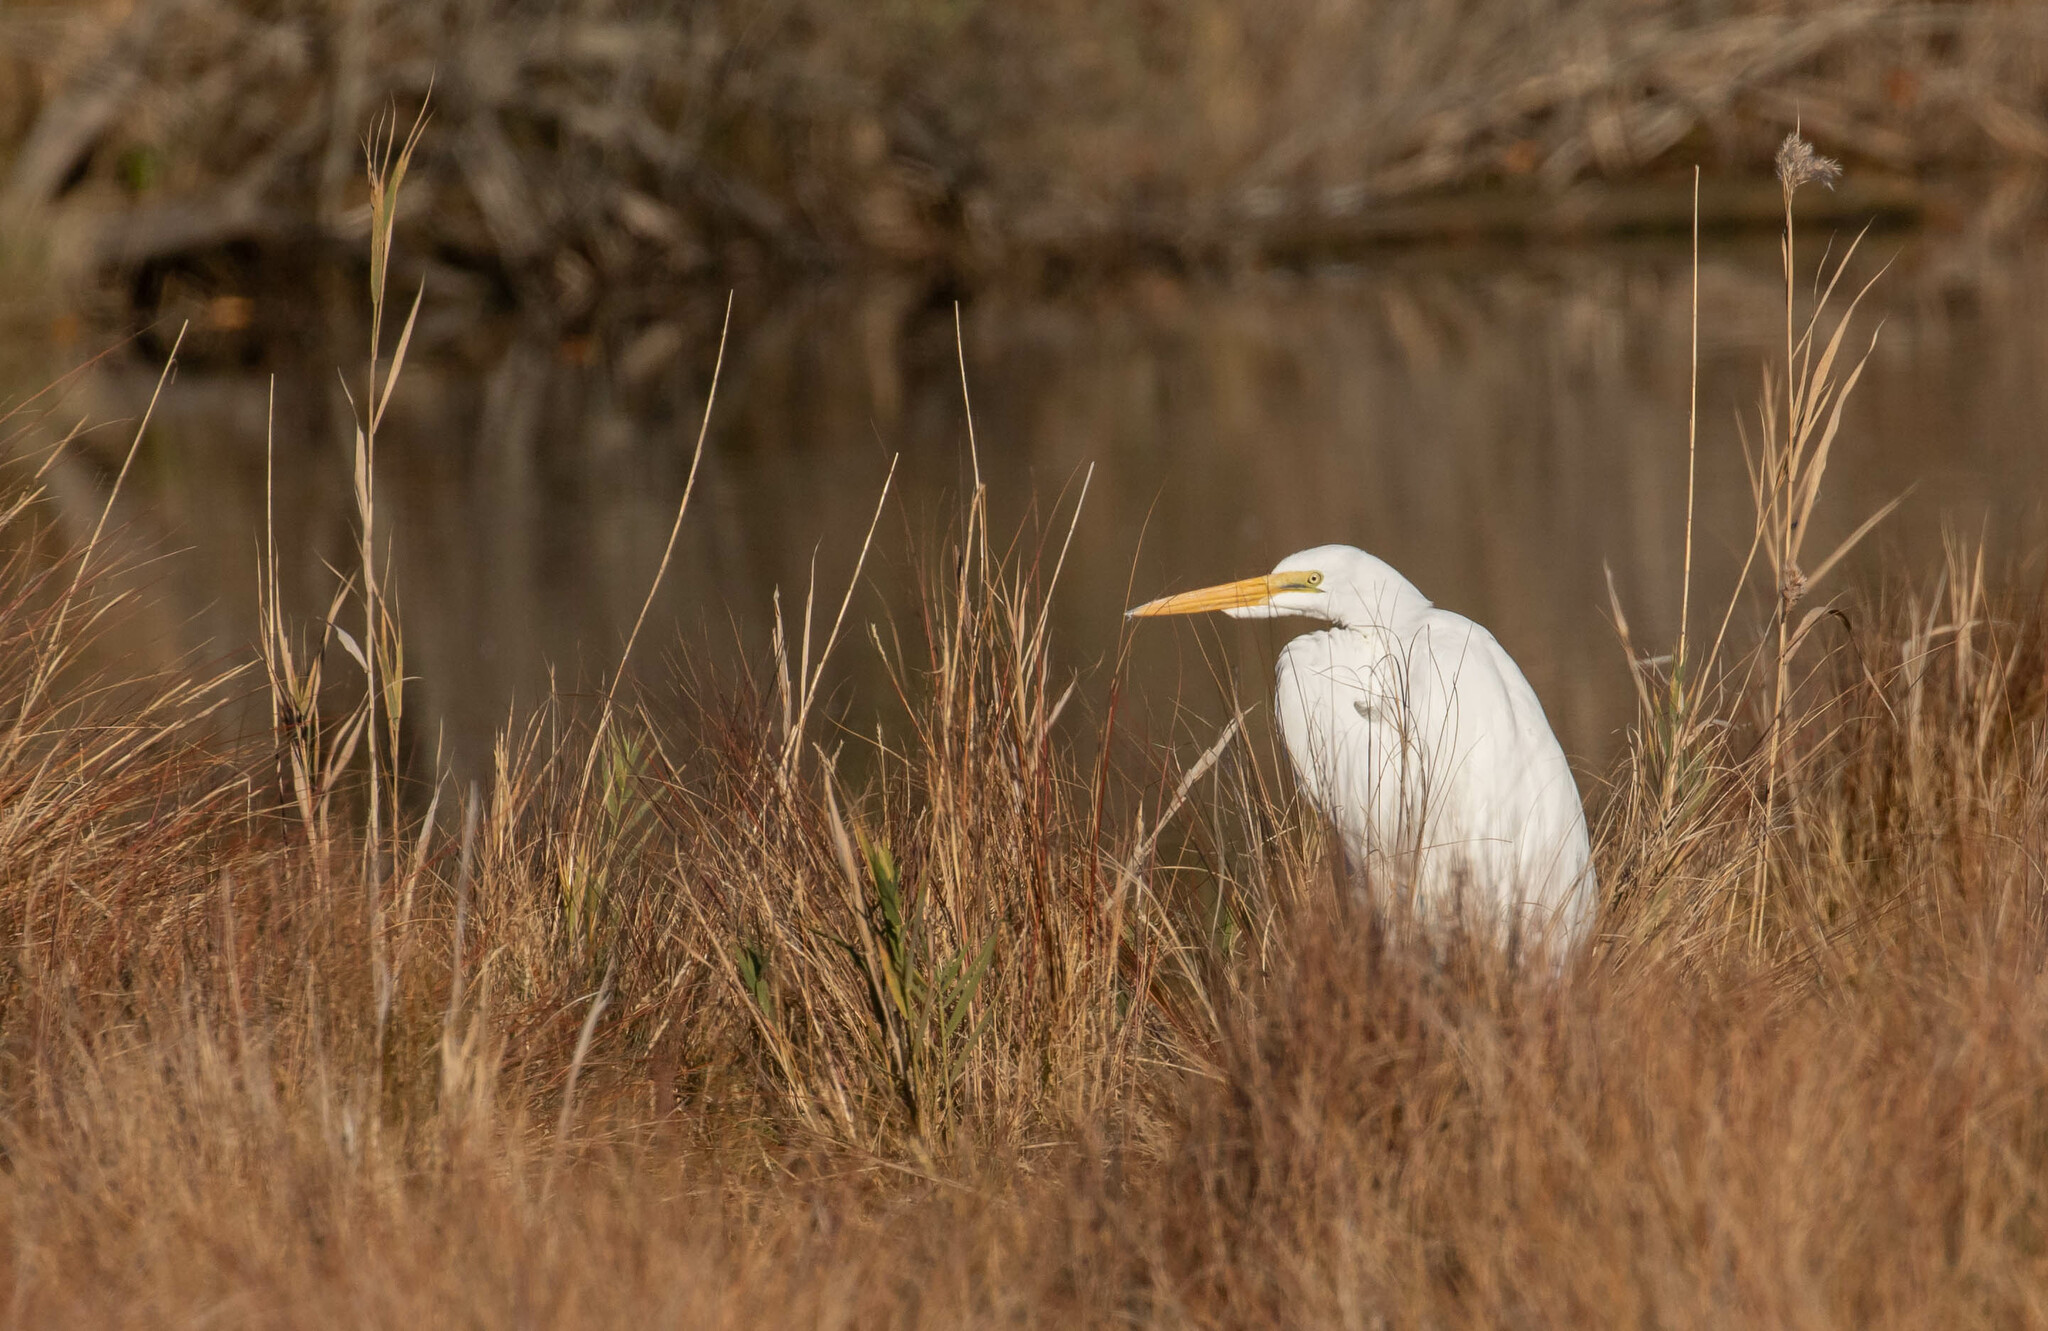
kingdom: Animalia
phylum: Chordata
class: Aves
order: Pelecaniformes
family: Ardeidae
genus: Ardea
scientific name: Ardea alba
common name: Great egret
